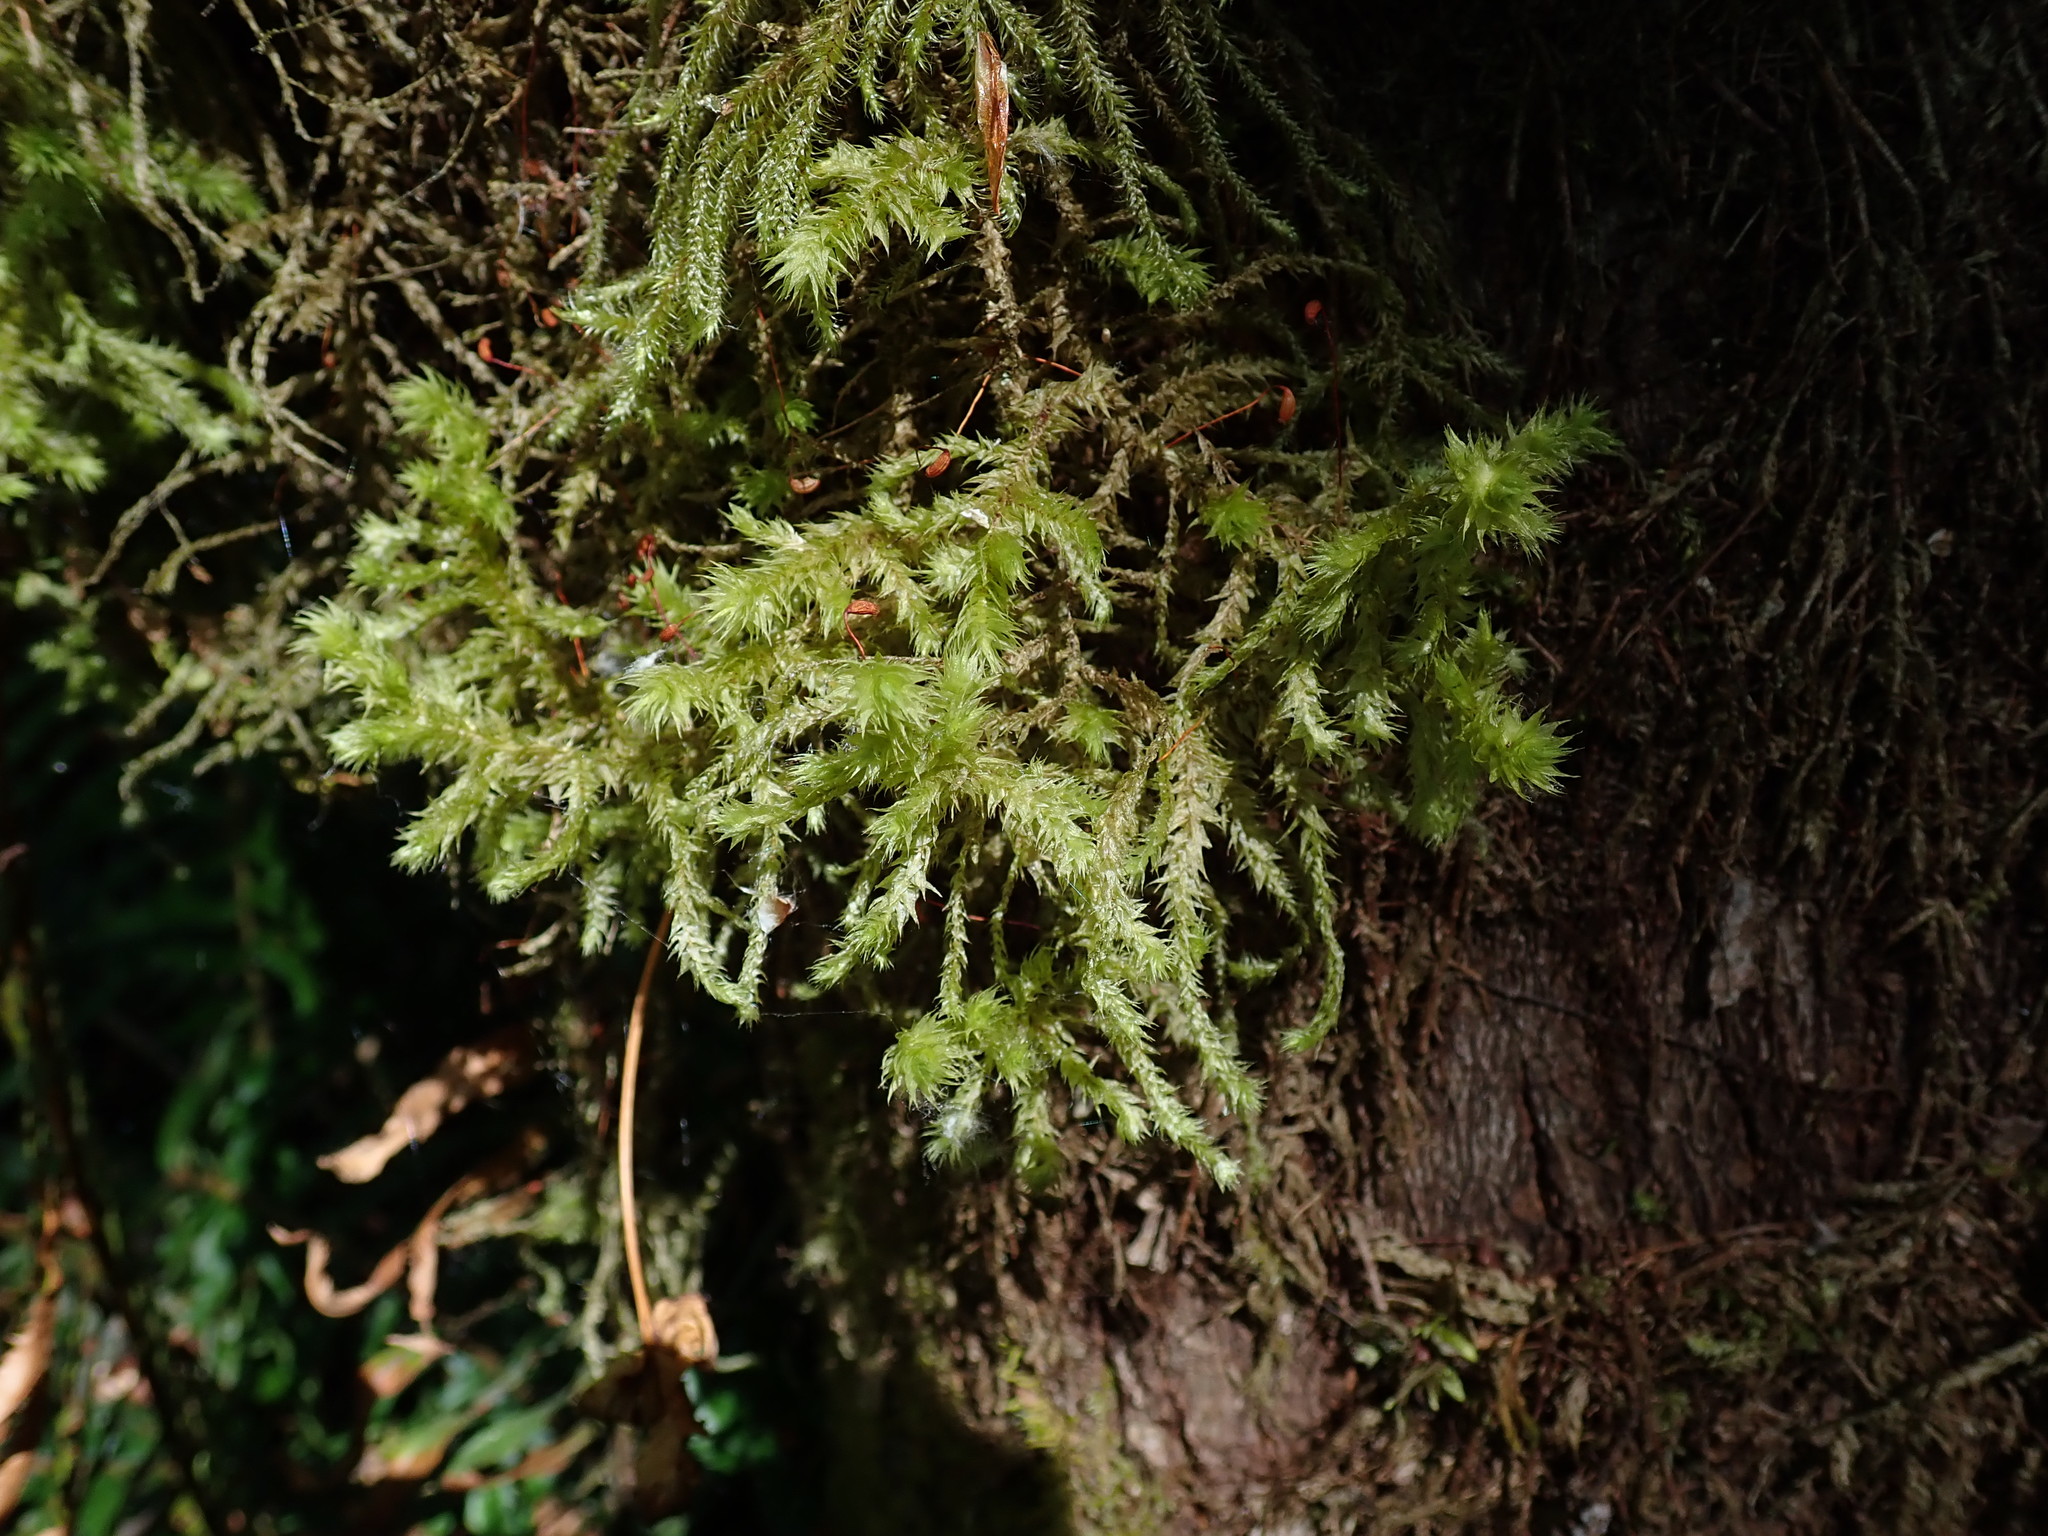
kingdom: Plantae
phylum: Bryophyta
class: Bryopsida
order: Hypnales
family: Hylocomiaceae
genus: Hylocomiadelphus
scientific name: Hylocomiadelphus triquetrus
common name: Rough goose neck moss
